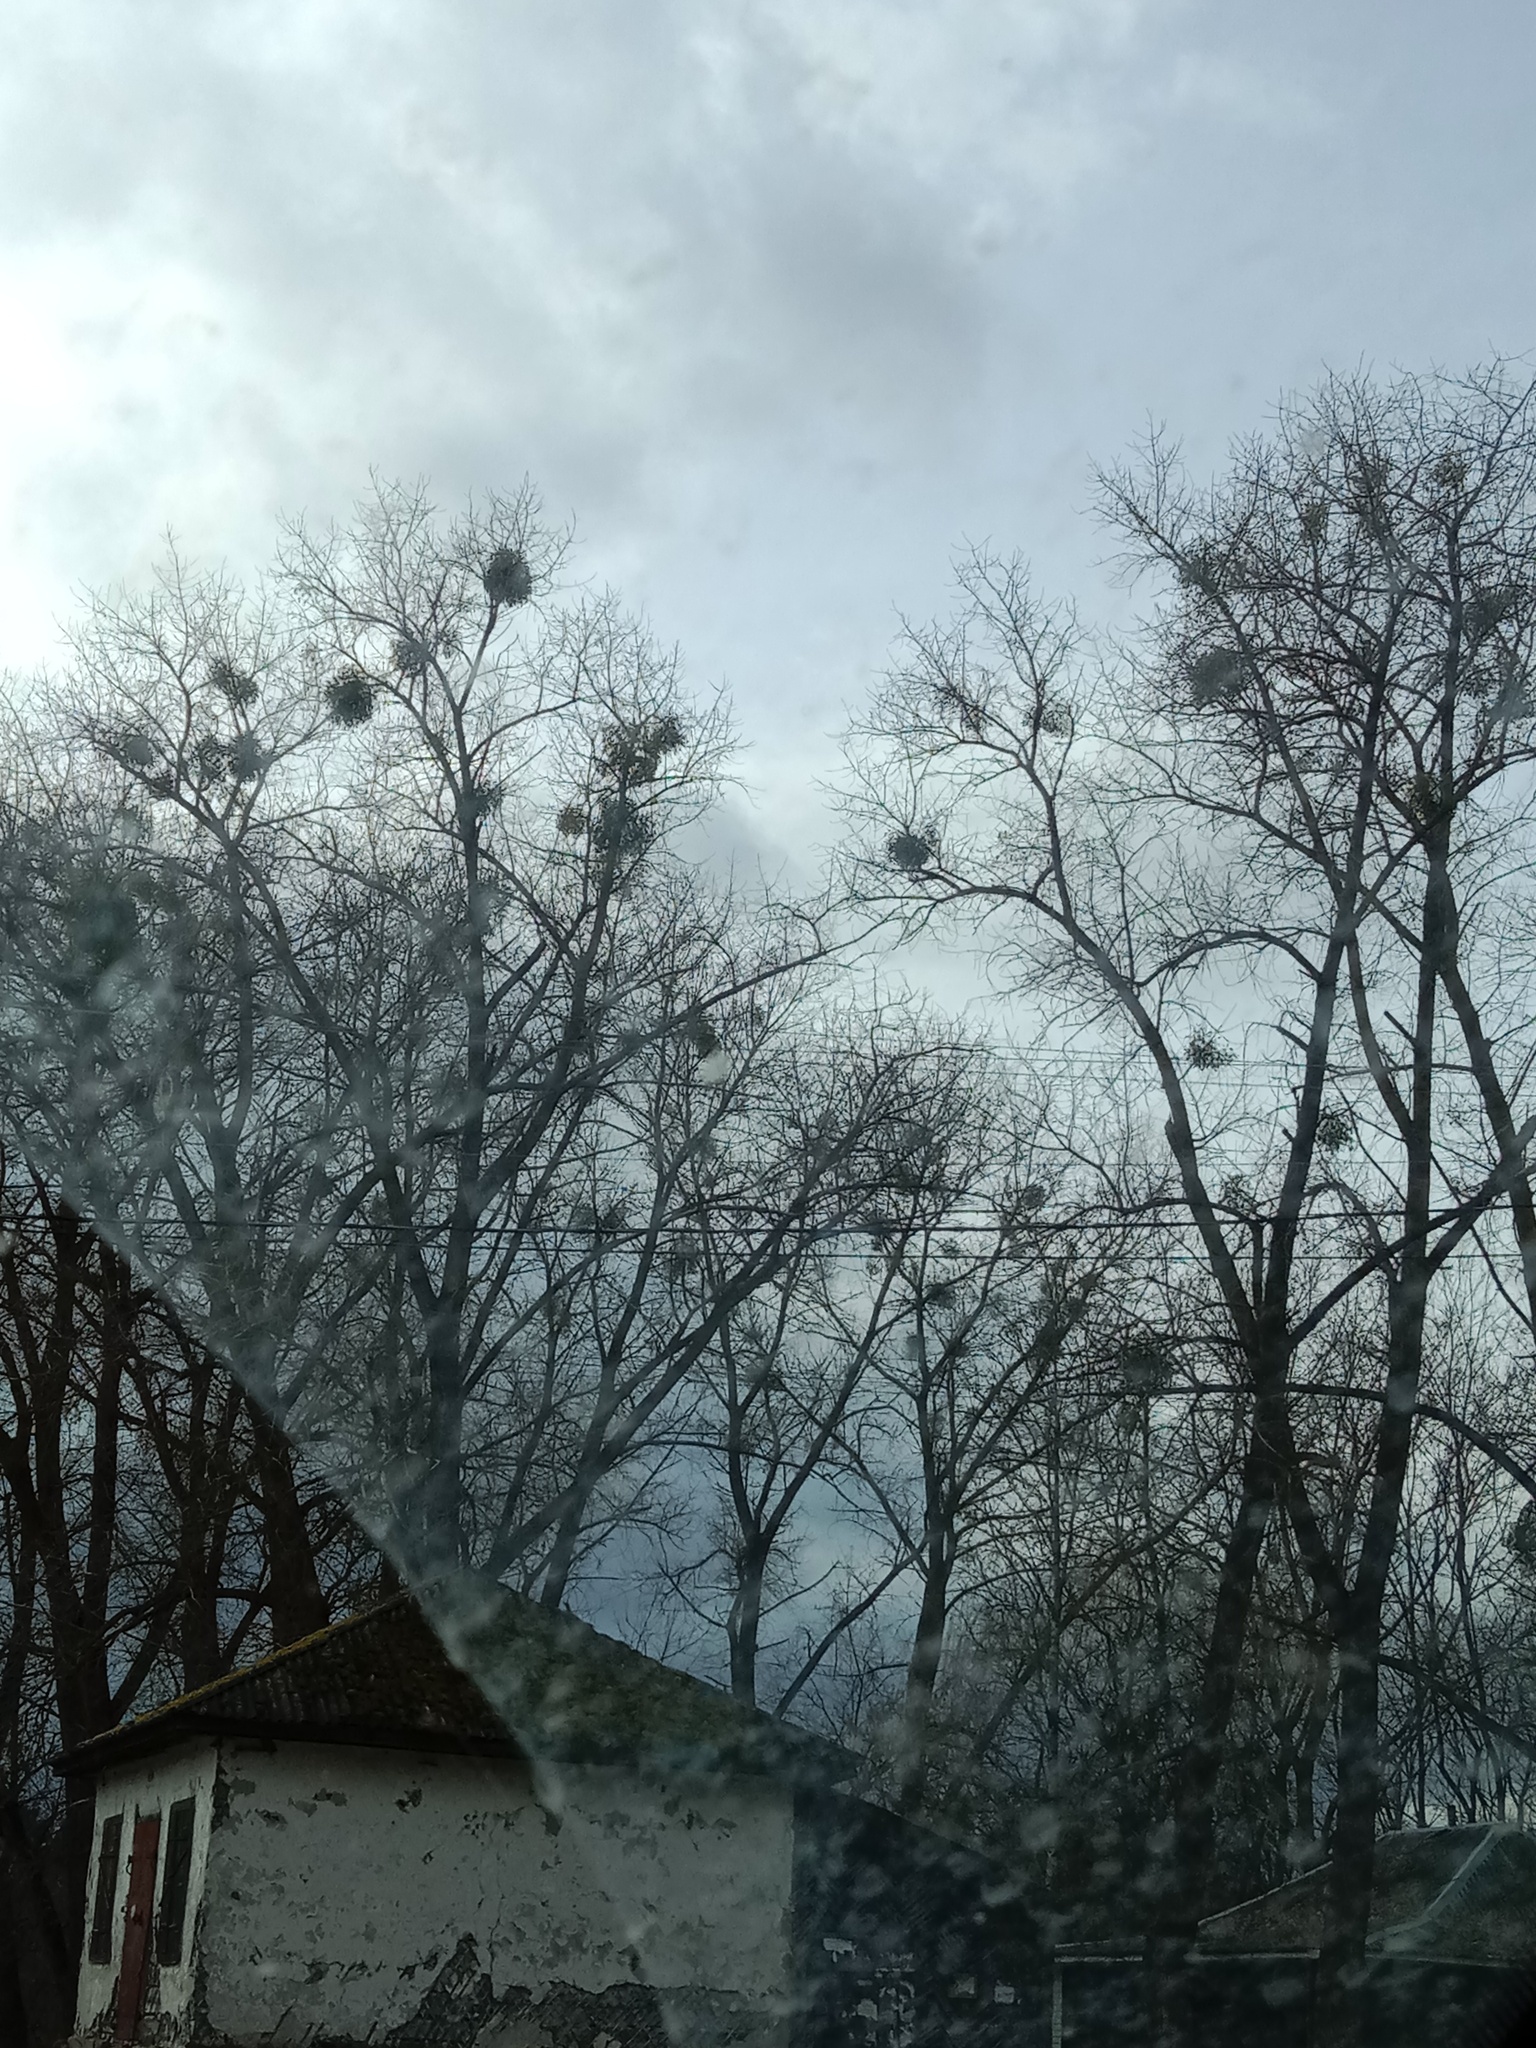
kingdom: Plantae
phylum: Tracheophyta
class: Magnoliopsida
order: Santalales
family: Viscaceae
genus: Viscum
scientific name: Viscum album
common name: Mistletoe
